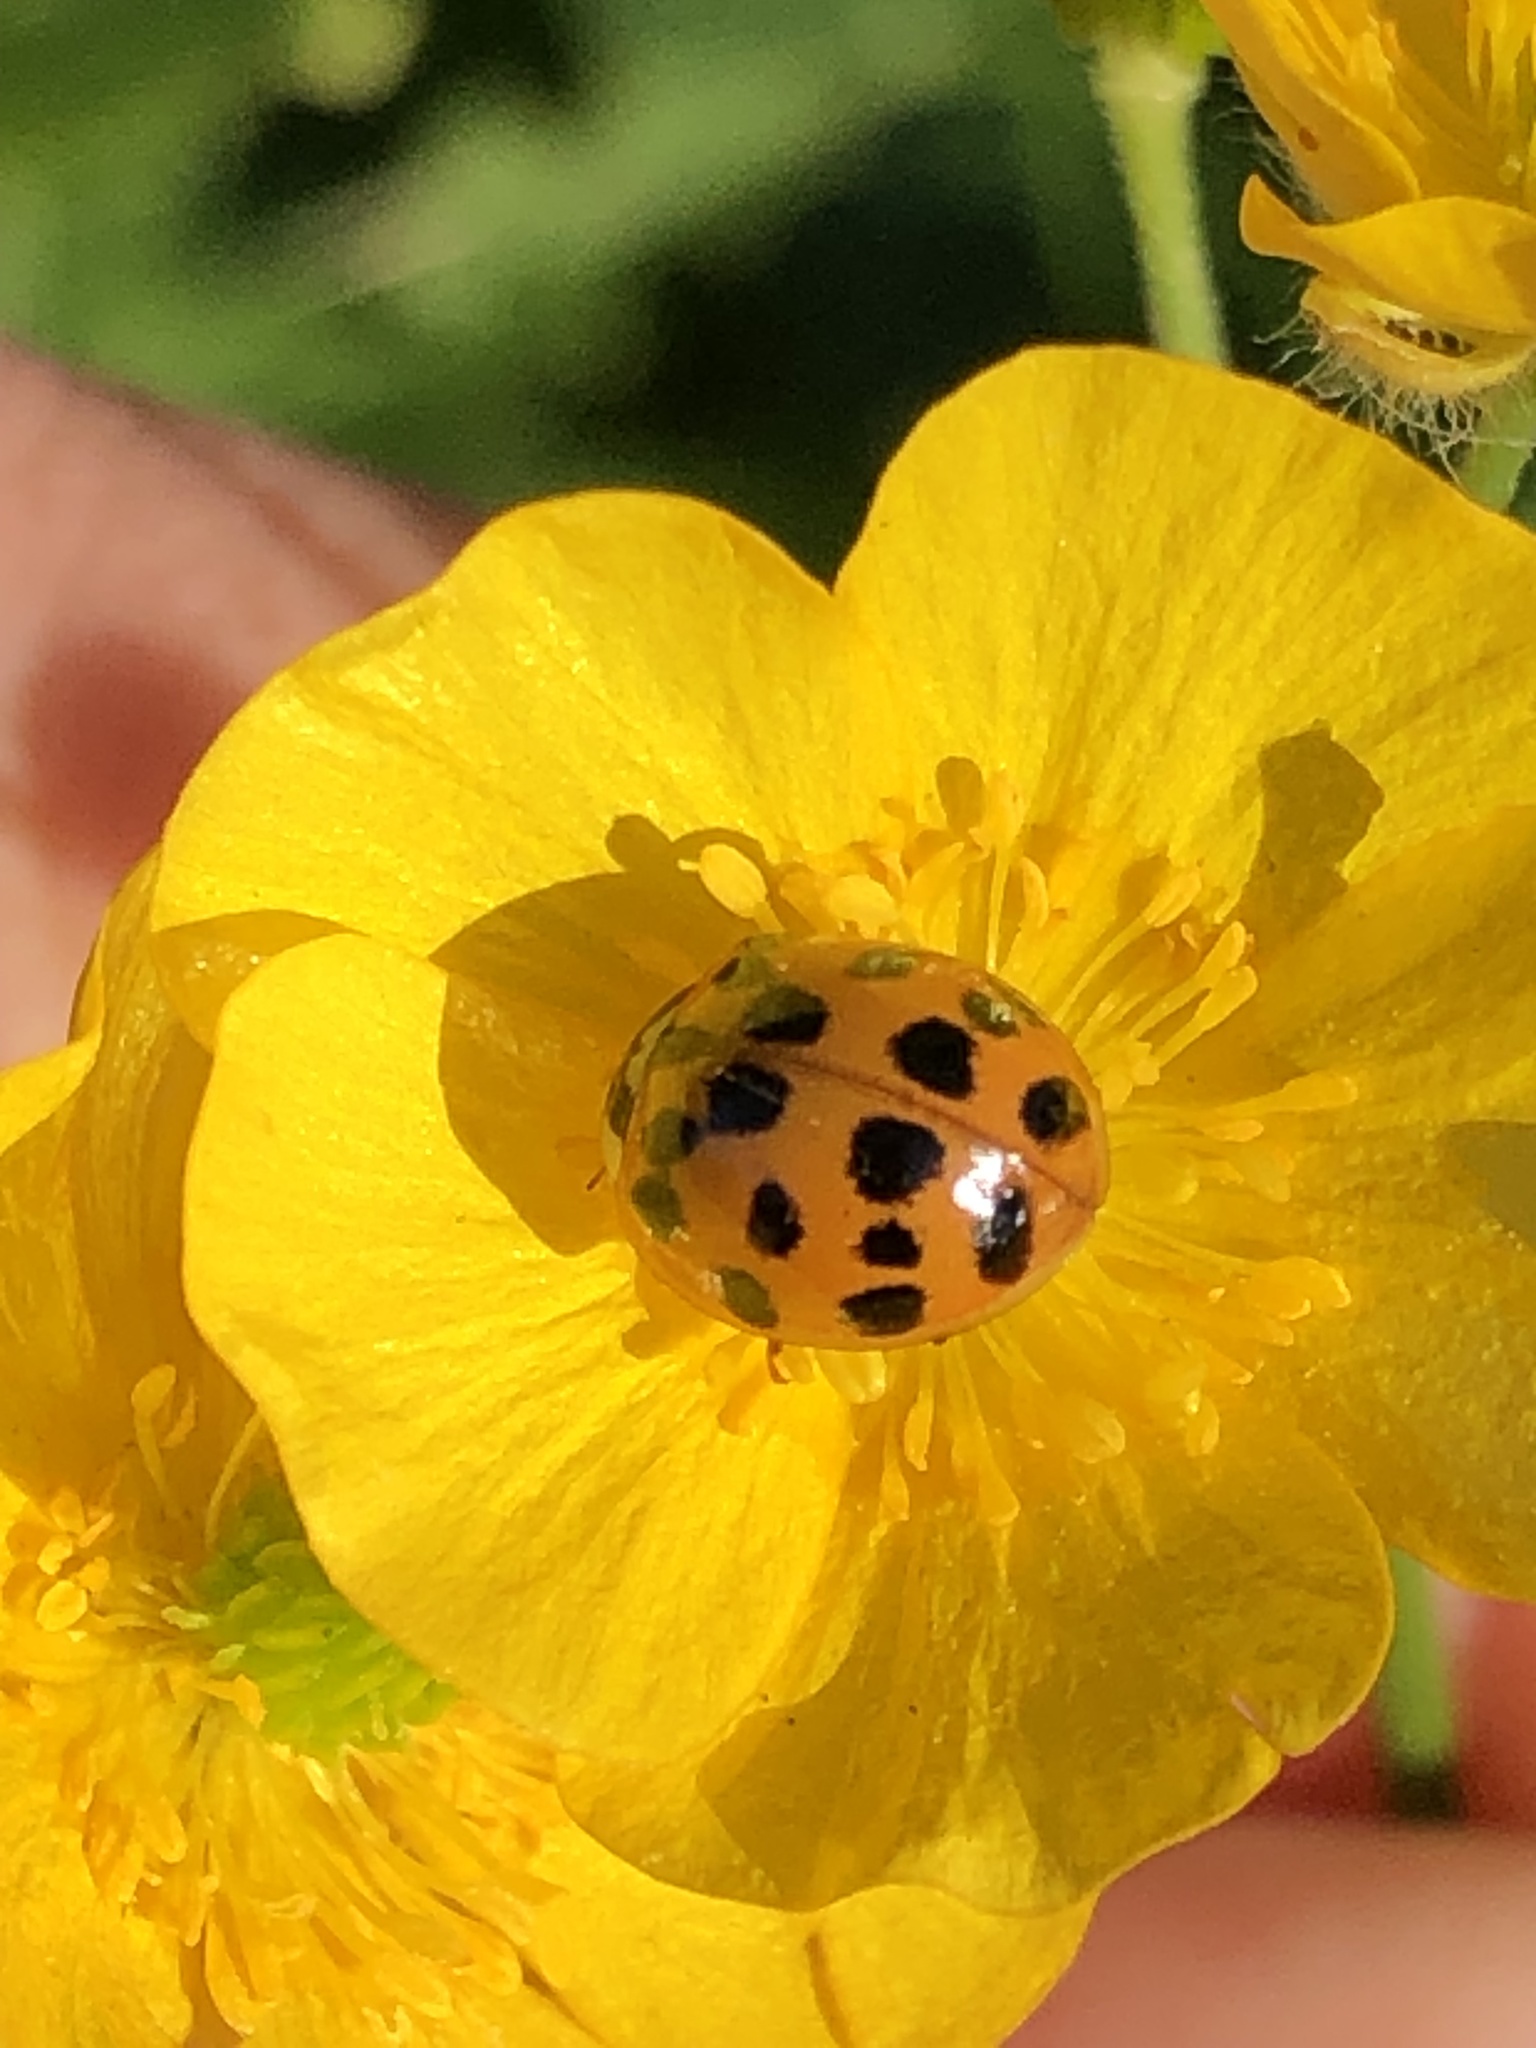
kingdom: Animalia
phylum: Arthropoda
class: Insecta
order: Coleoptera
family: Coccinellidae
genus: Harmonia
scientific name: Harmonia axyridis
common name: Harlequin ladybird
